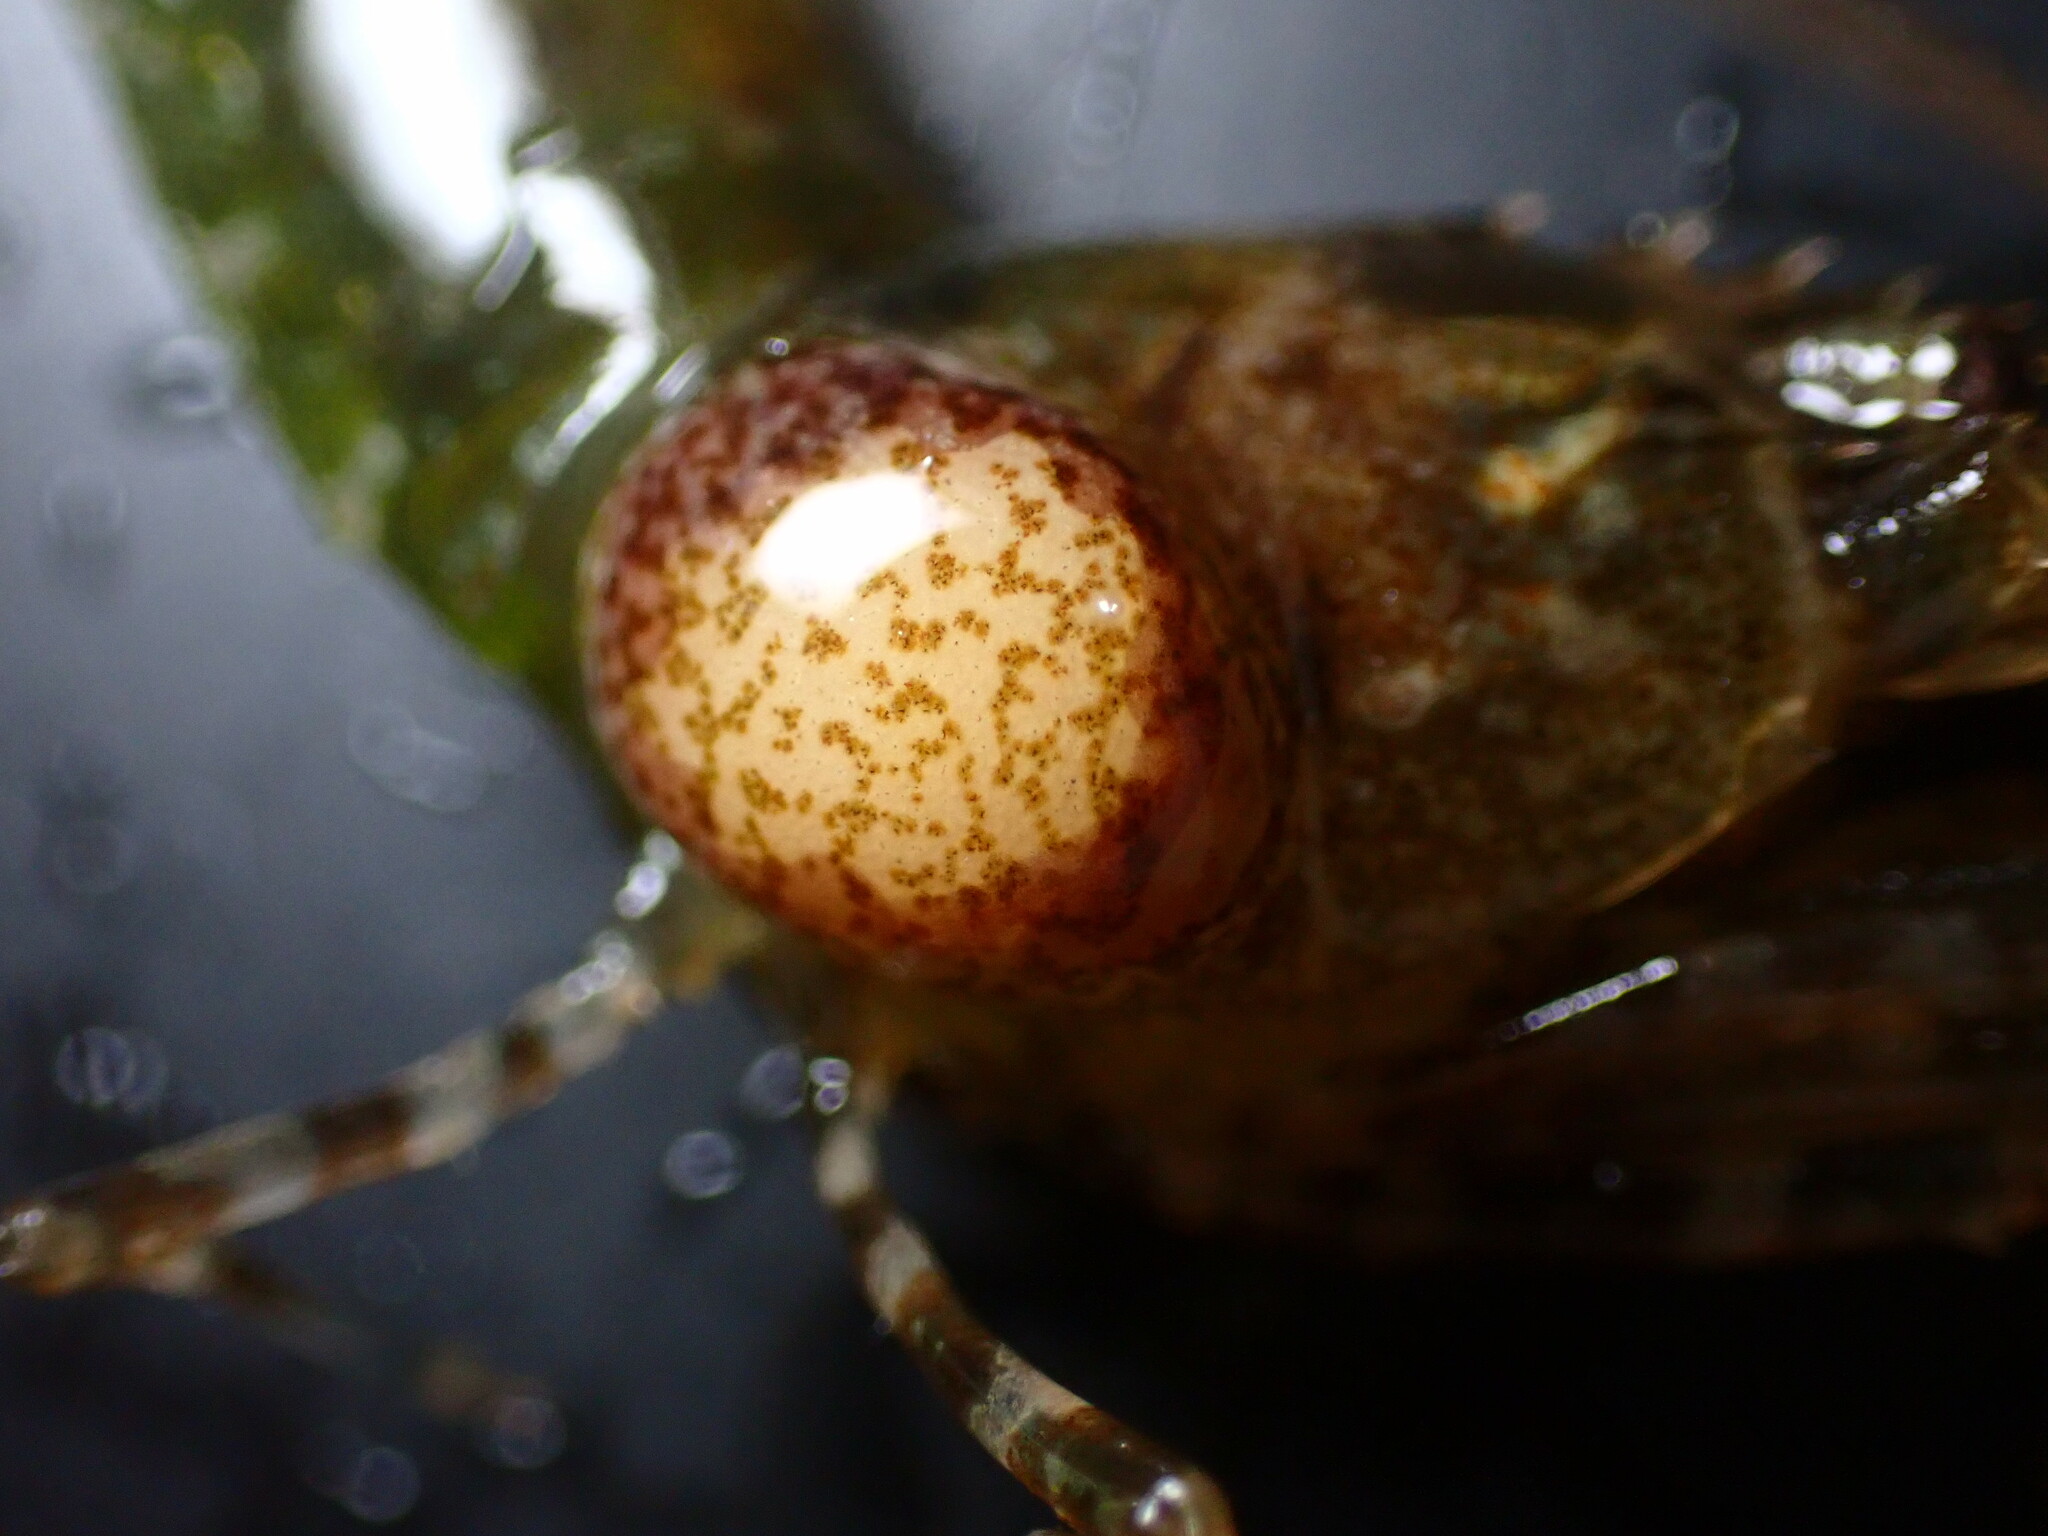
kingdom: Animalia
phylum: Arthropoda
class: Malacostraca
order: Isopoda
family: Bopyridae
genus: Bopyroides
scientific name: Bopyroides hippolytes
